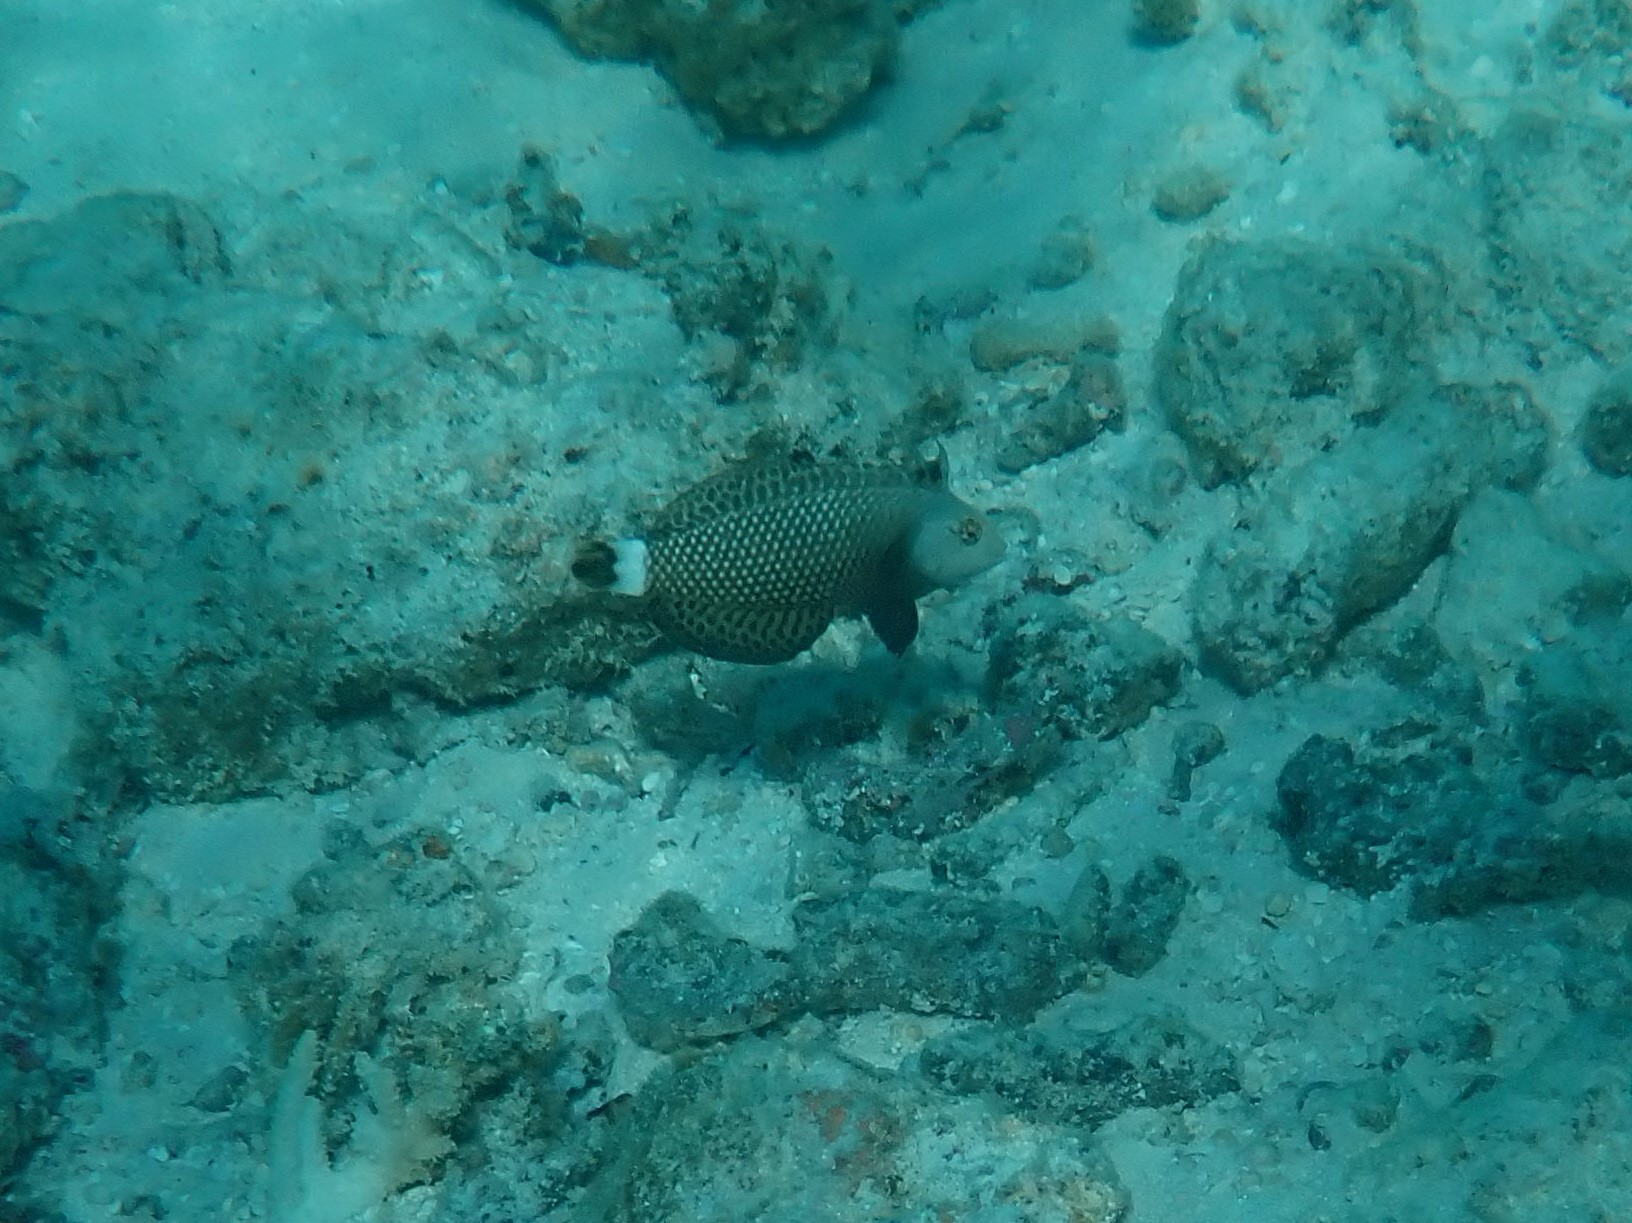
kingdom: Animalia
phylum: Chordata
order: Perciformes
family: Labridae
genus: Novaculichthys
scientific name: Novaculichthys taeniourus
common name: Rockmover wrasse
